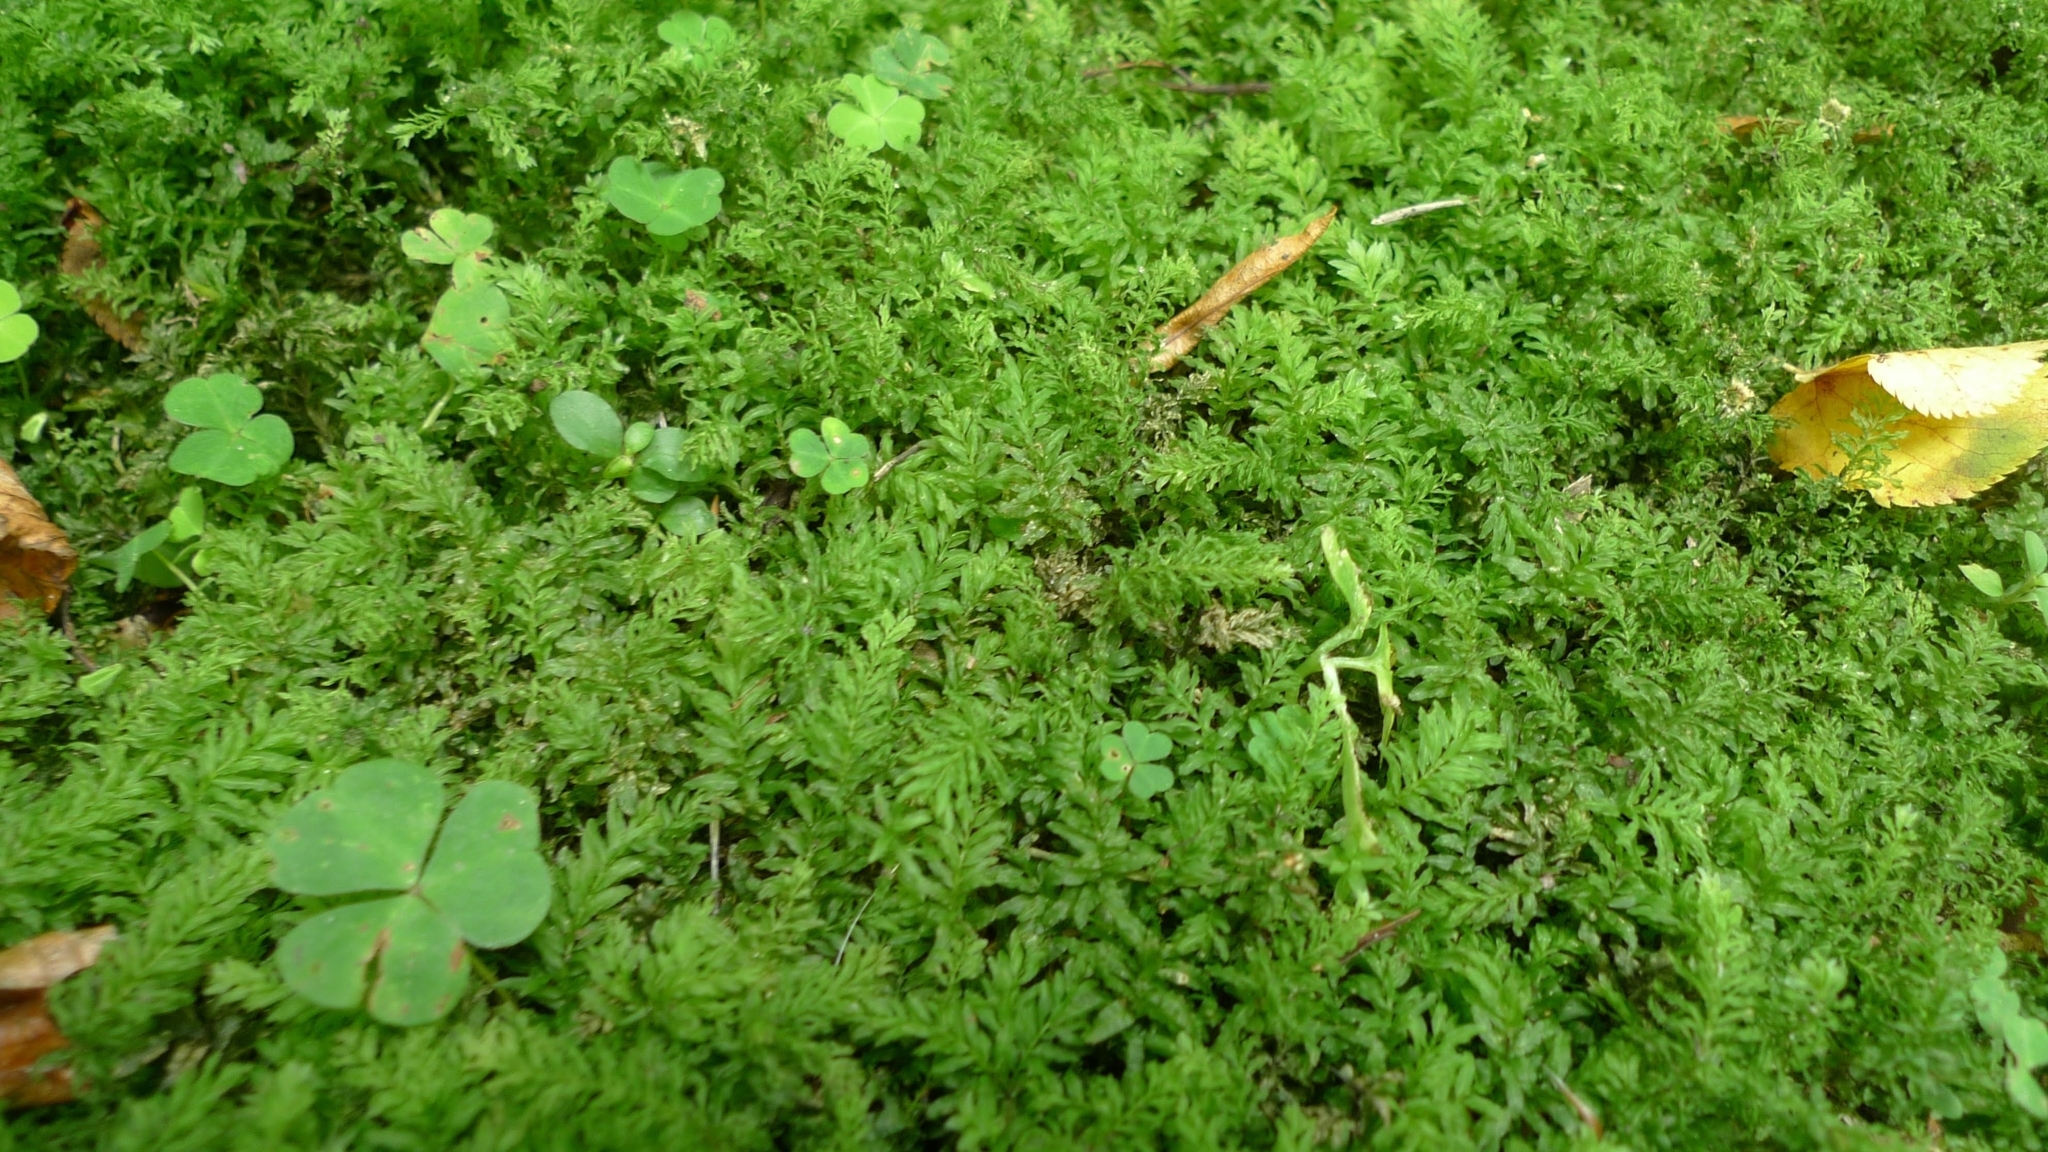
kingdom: Plantae
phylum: Bryophyta
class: Bryopsida
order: Bryales
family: Mniaceae
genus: Plagiomnium
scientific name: Plagiomnium undulatum
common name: Hart's-tongue thyme-moss
